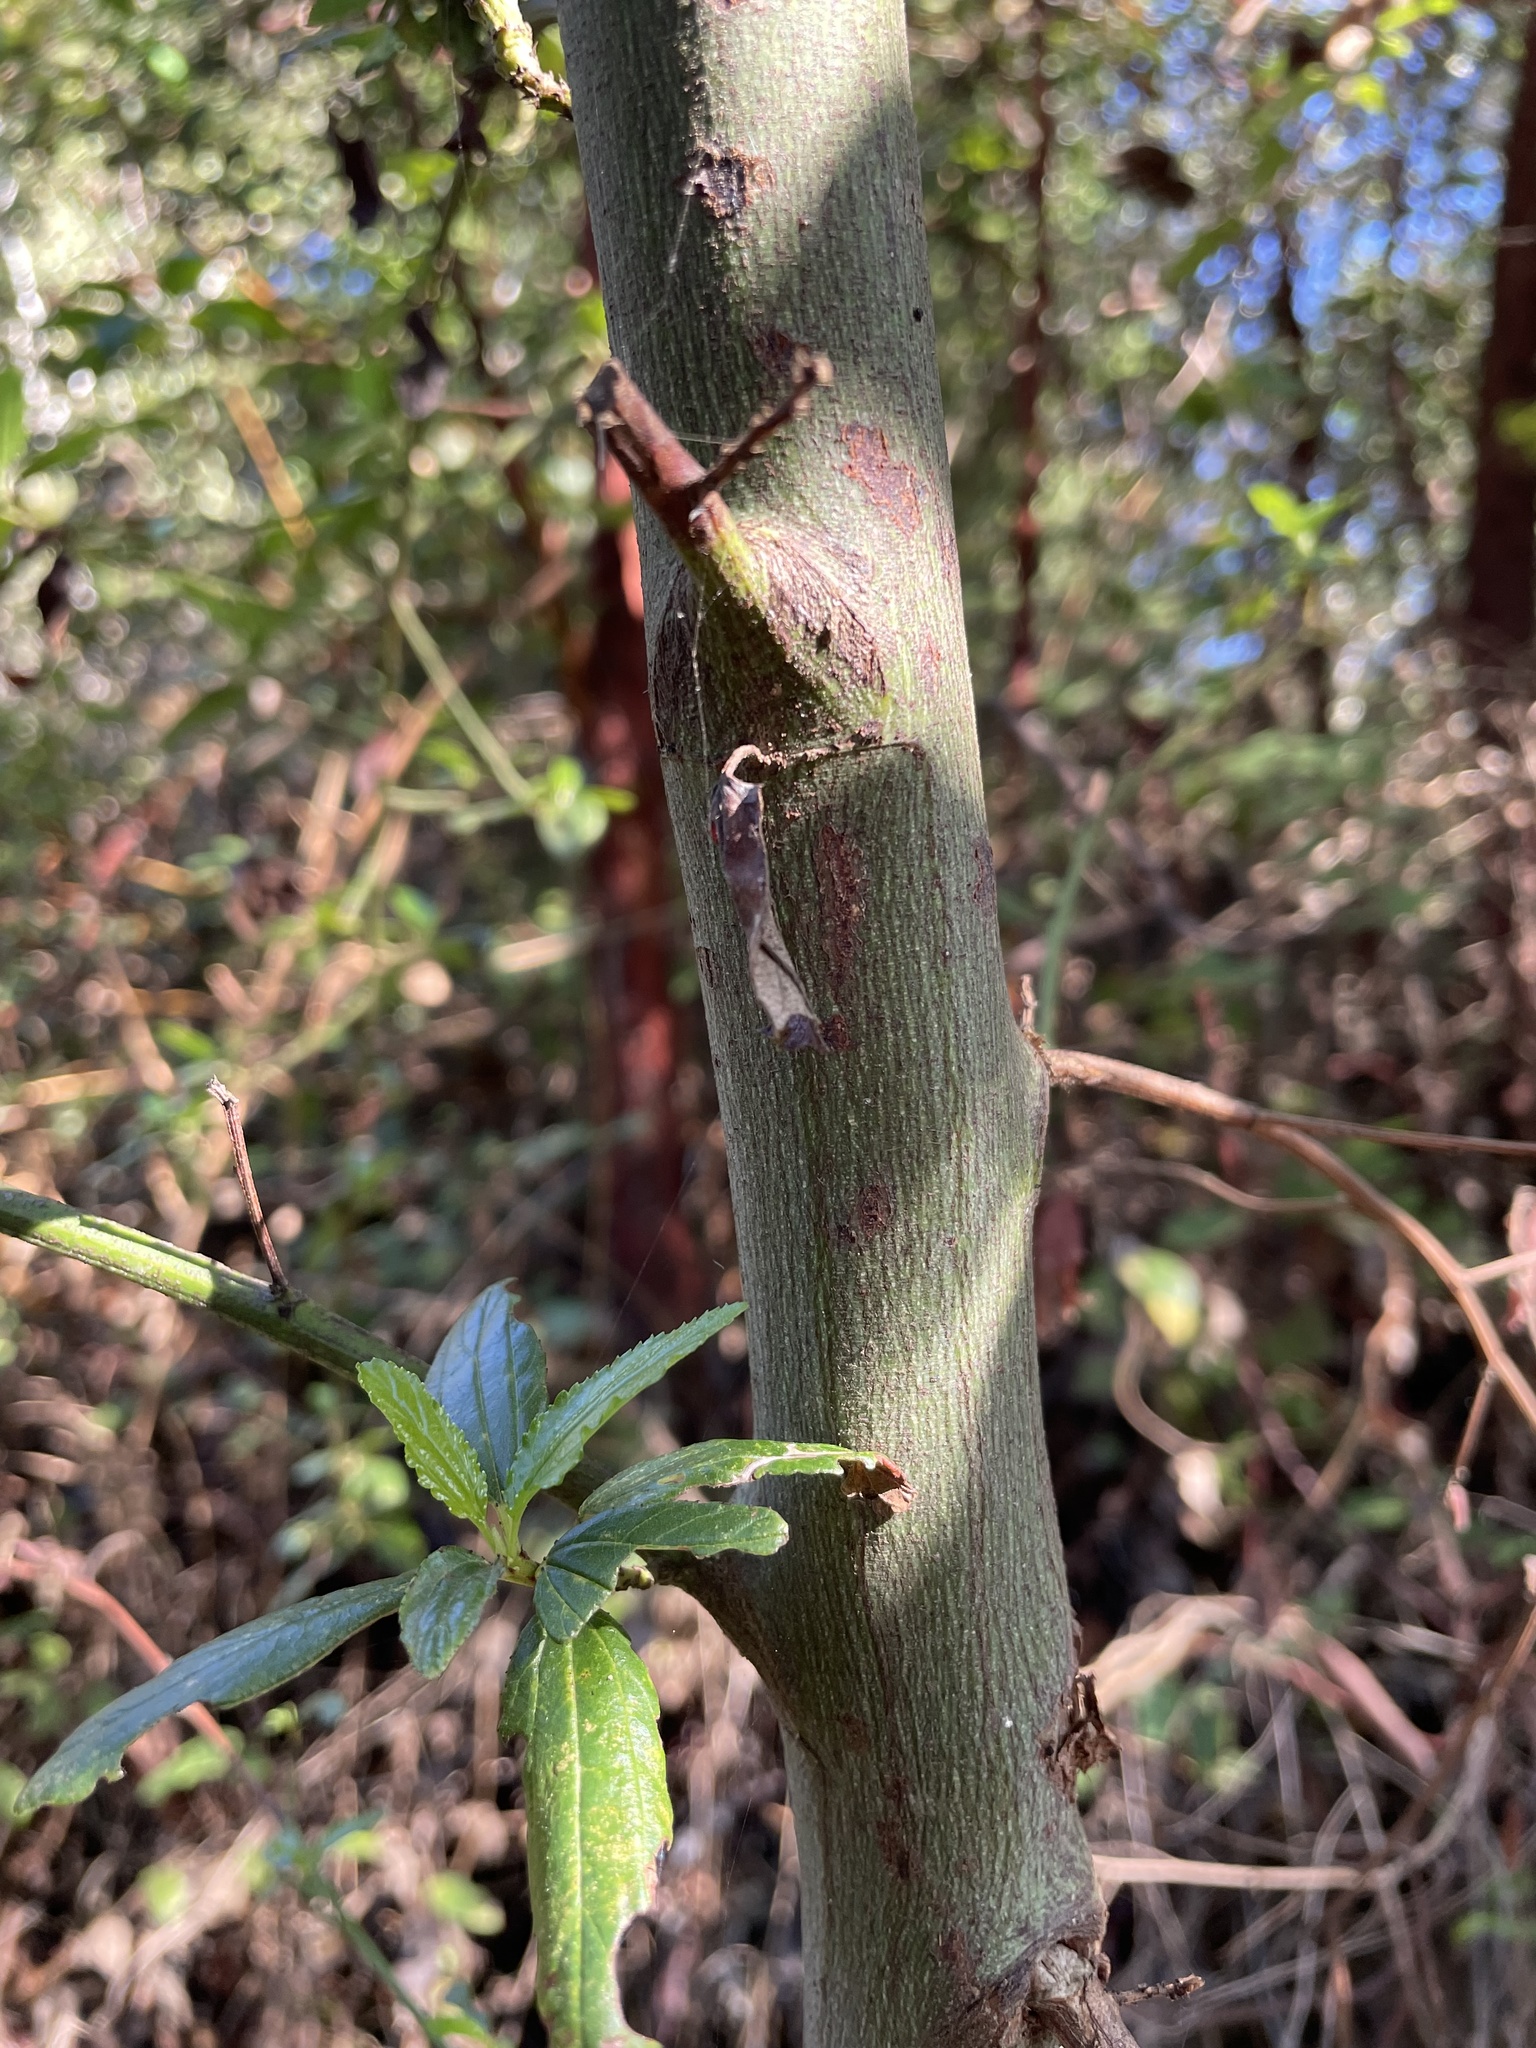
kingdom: Plantae
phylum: Tracheophyta
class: Magnoliopsida
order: Rosales
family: Rhamnaceae
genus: Ceanothus
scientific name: Ceanothus thyrsiflorus
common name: California-lilac
